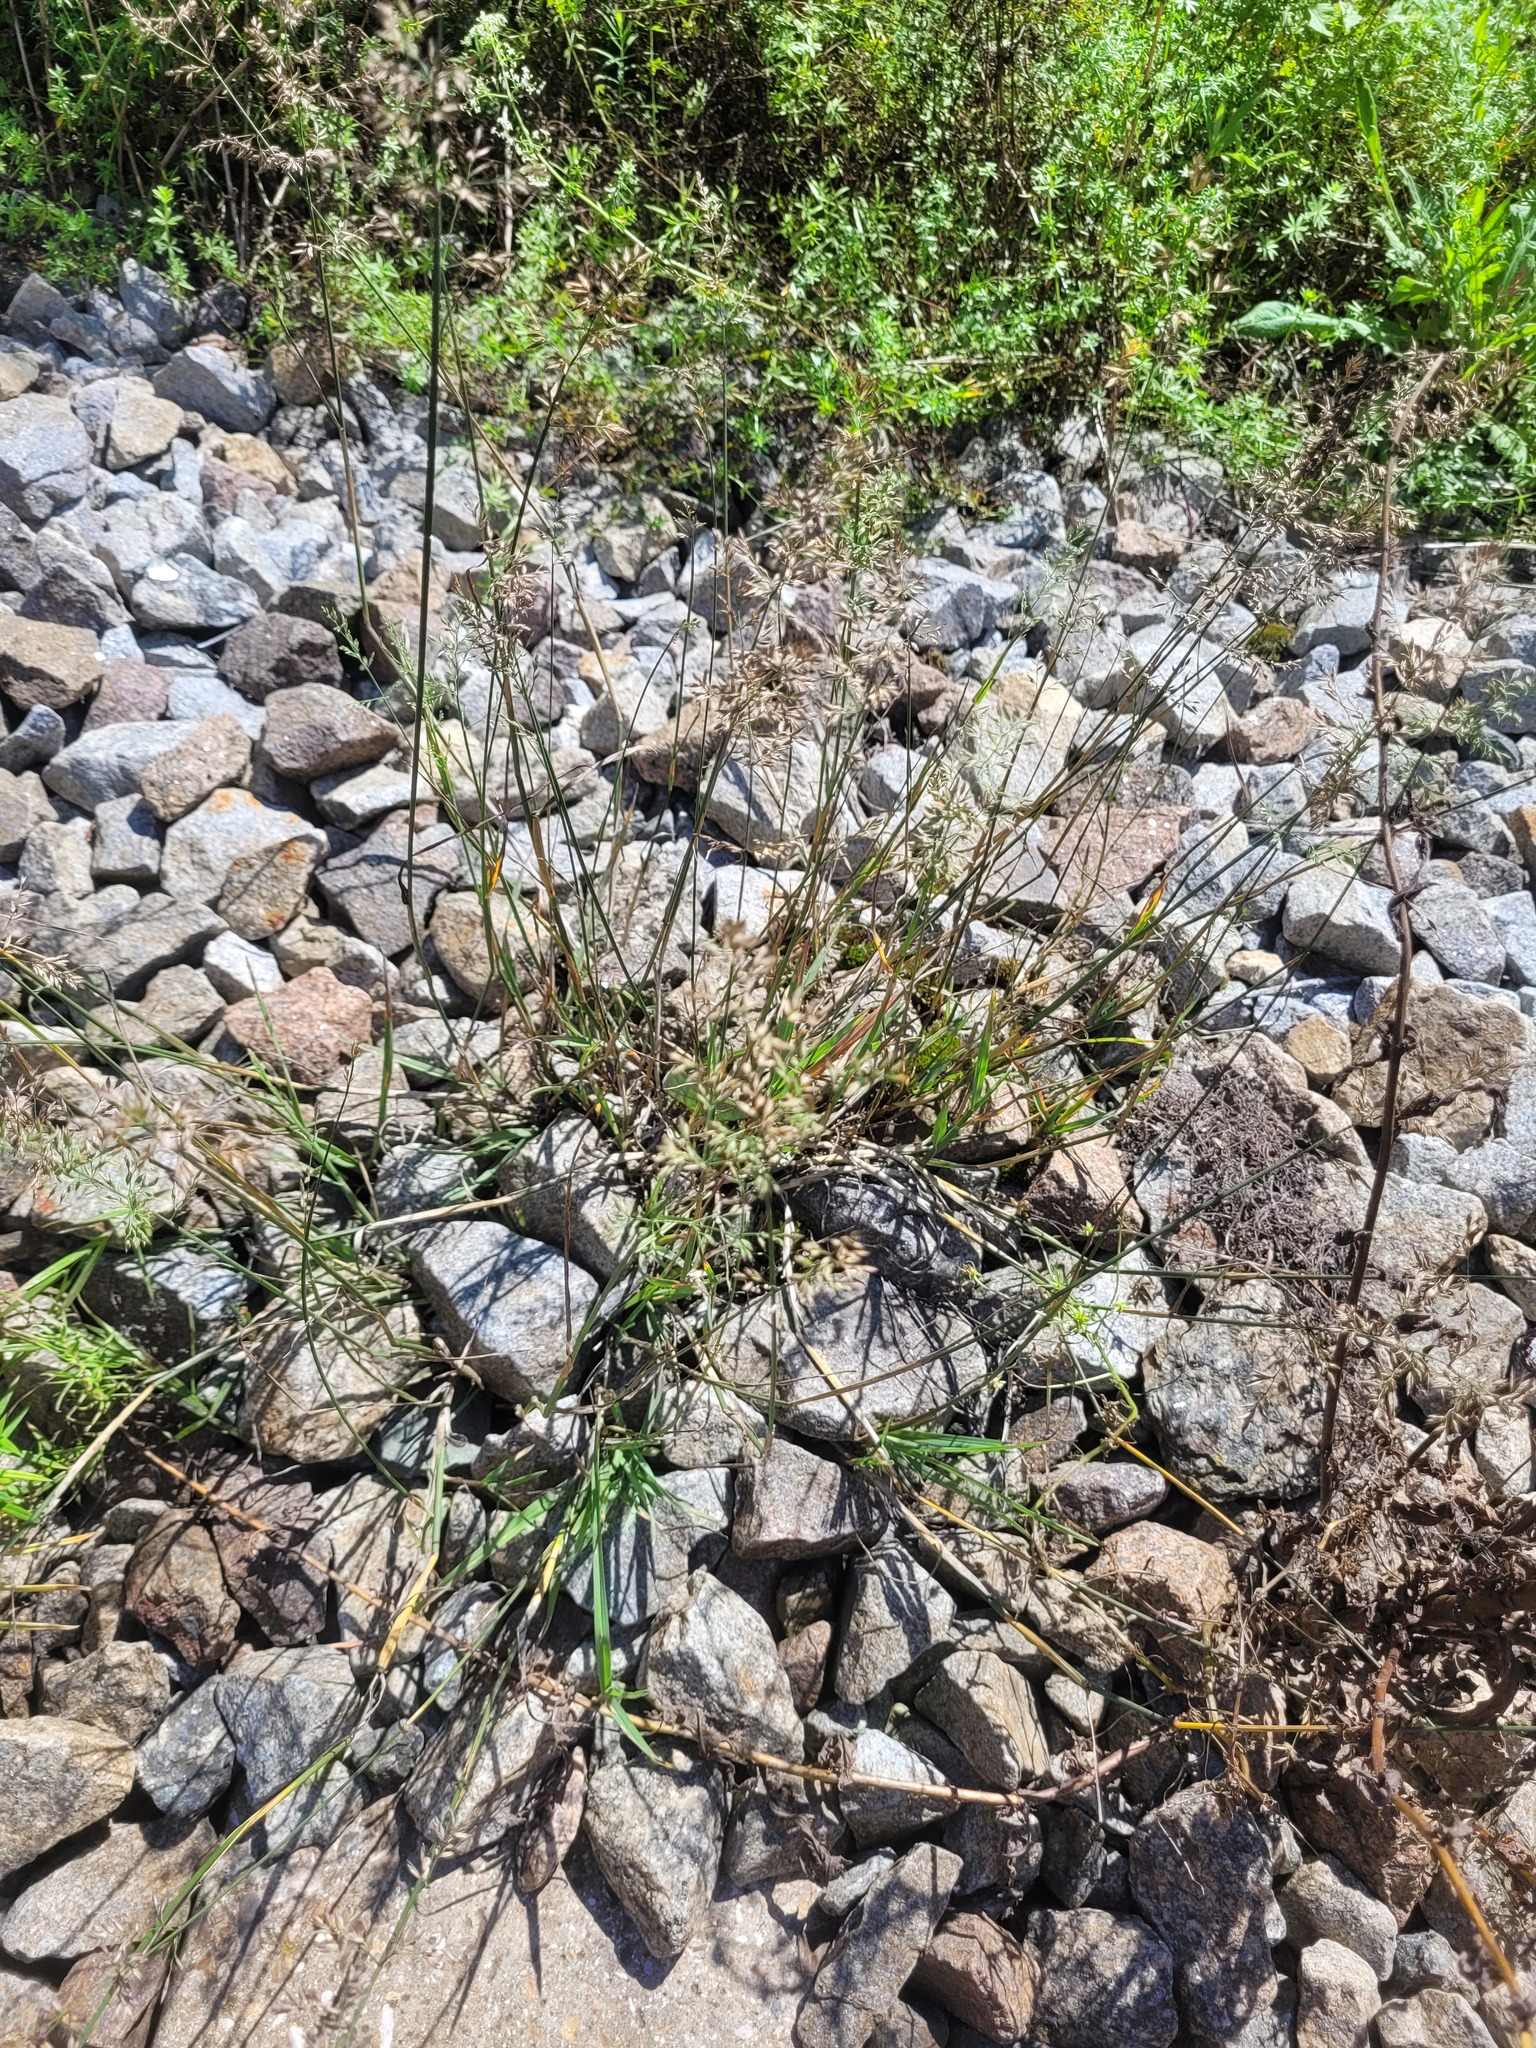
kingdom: Plantae
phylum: Tracheophyta
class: Liliopsida
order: Poales
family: Poaceae
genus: Poa
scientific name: Poa compressa
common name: Canada bluegrass
